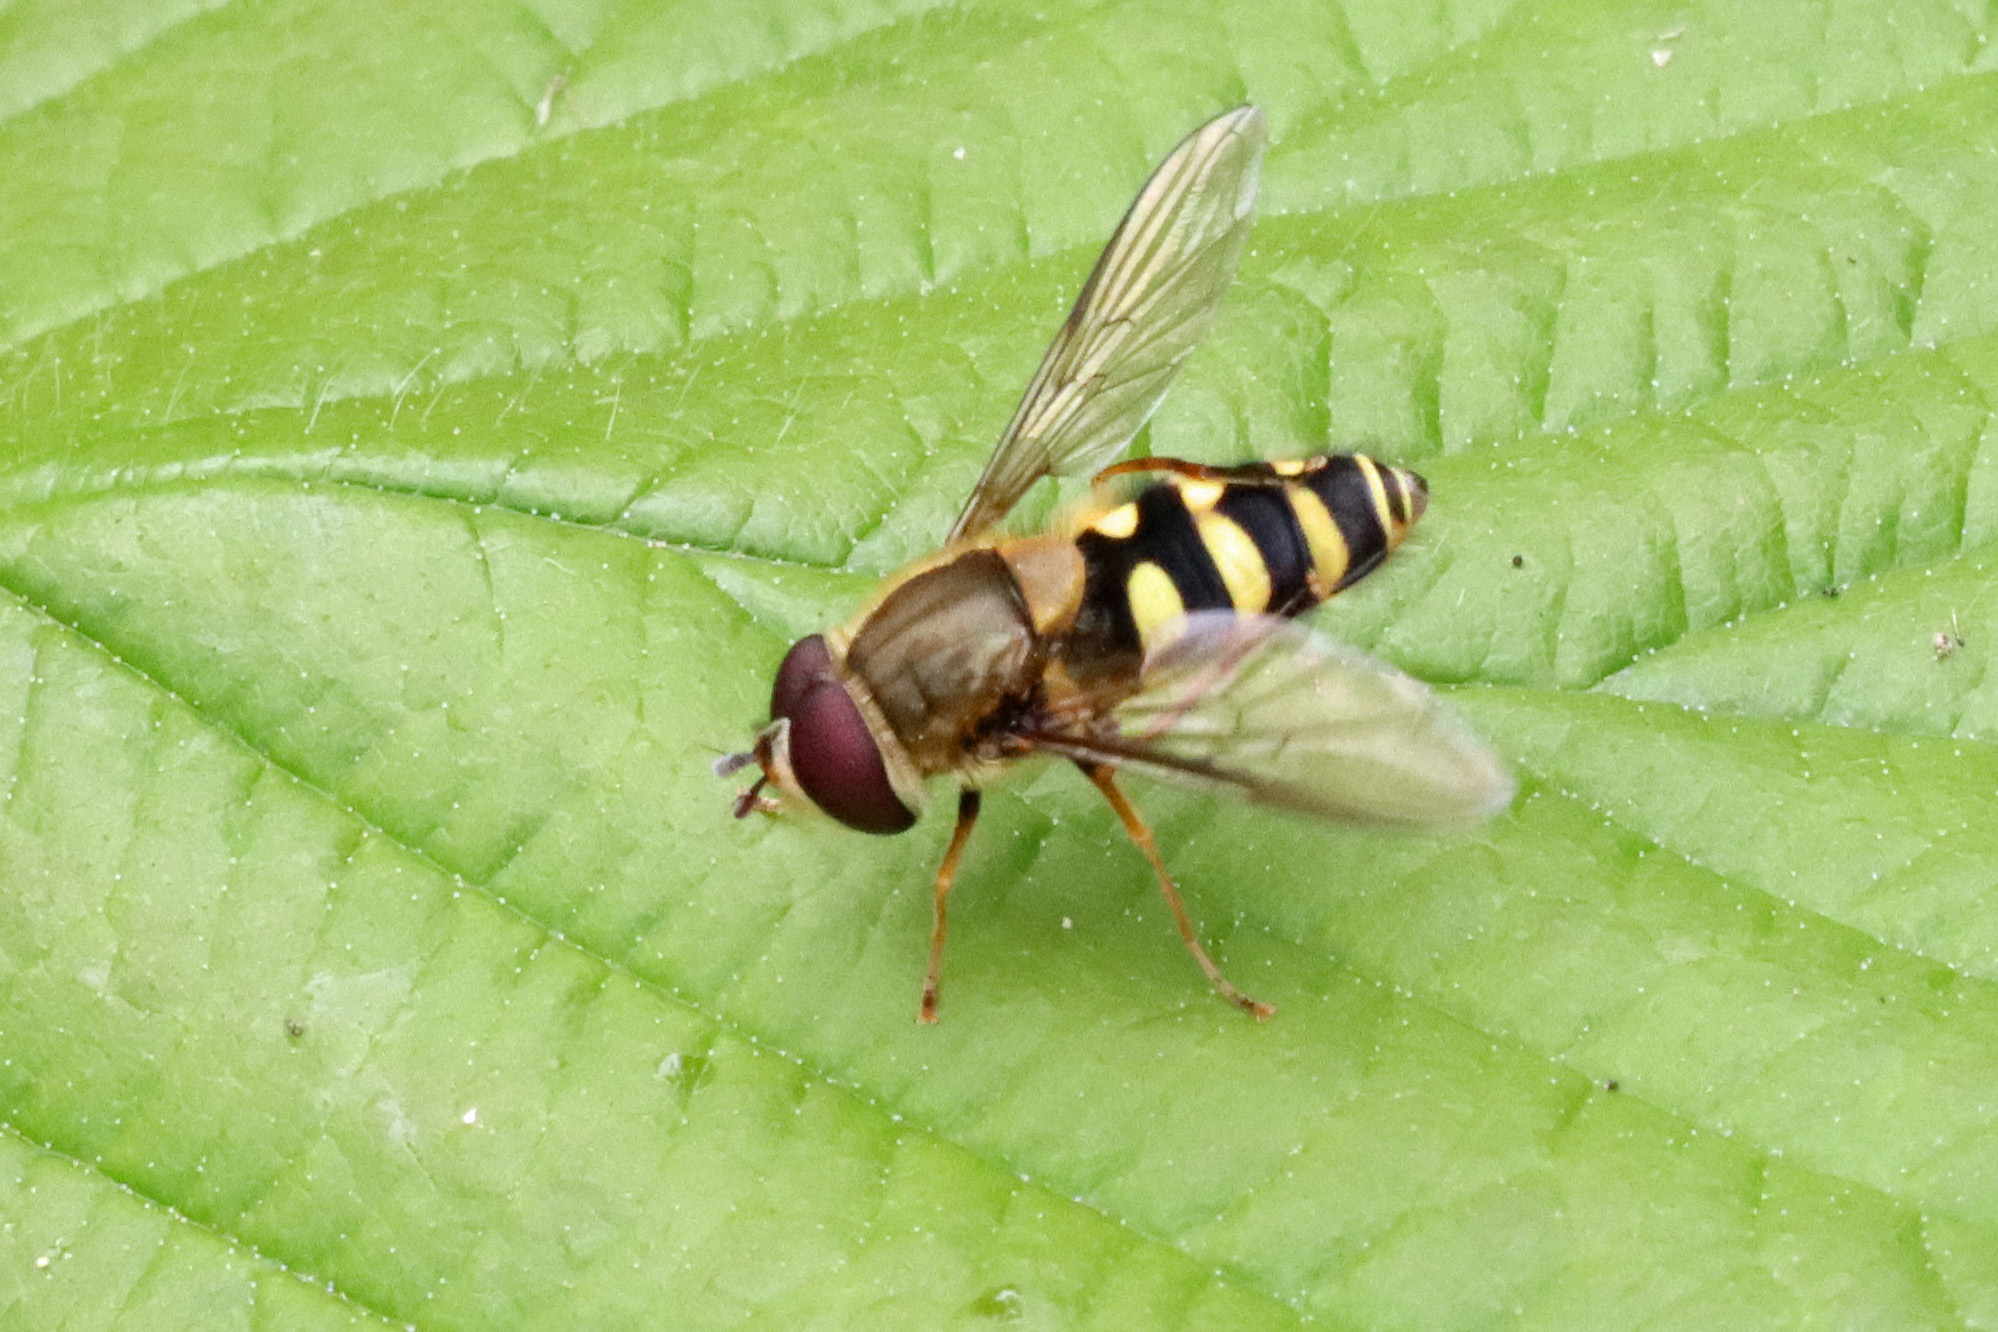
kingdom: Animalia
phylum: Arthropoda
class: Insecta
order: Diptera
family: Syrphidae
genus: Syrphus
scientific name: Syrphus
